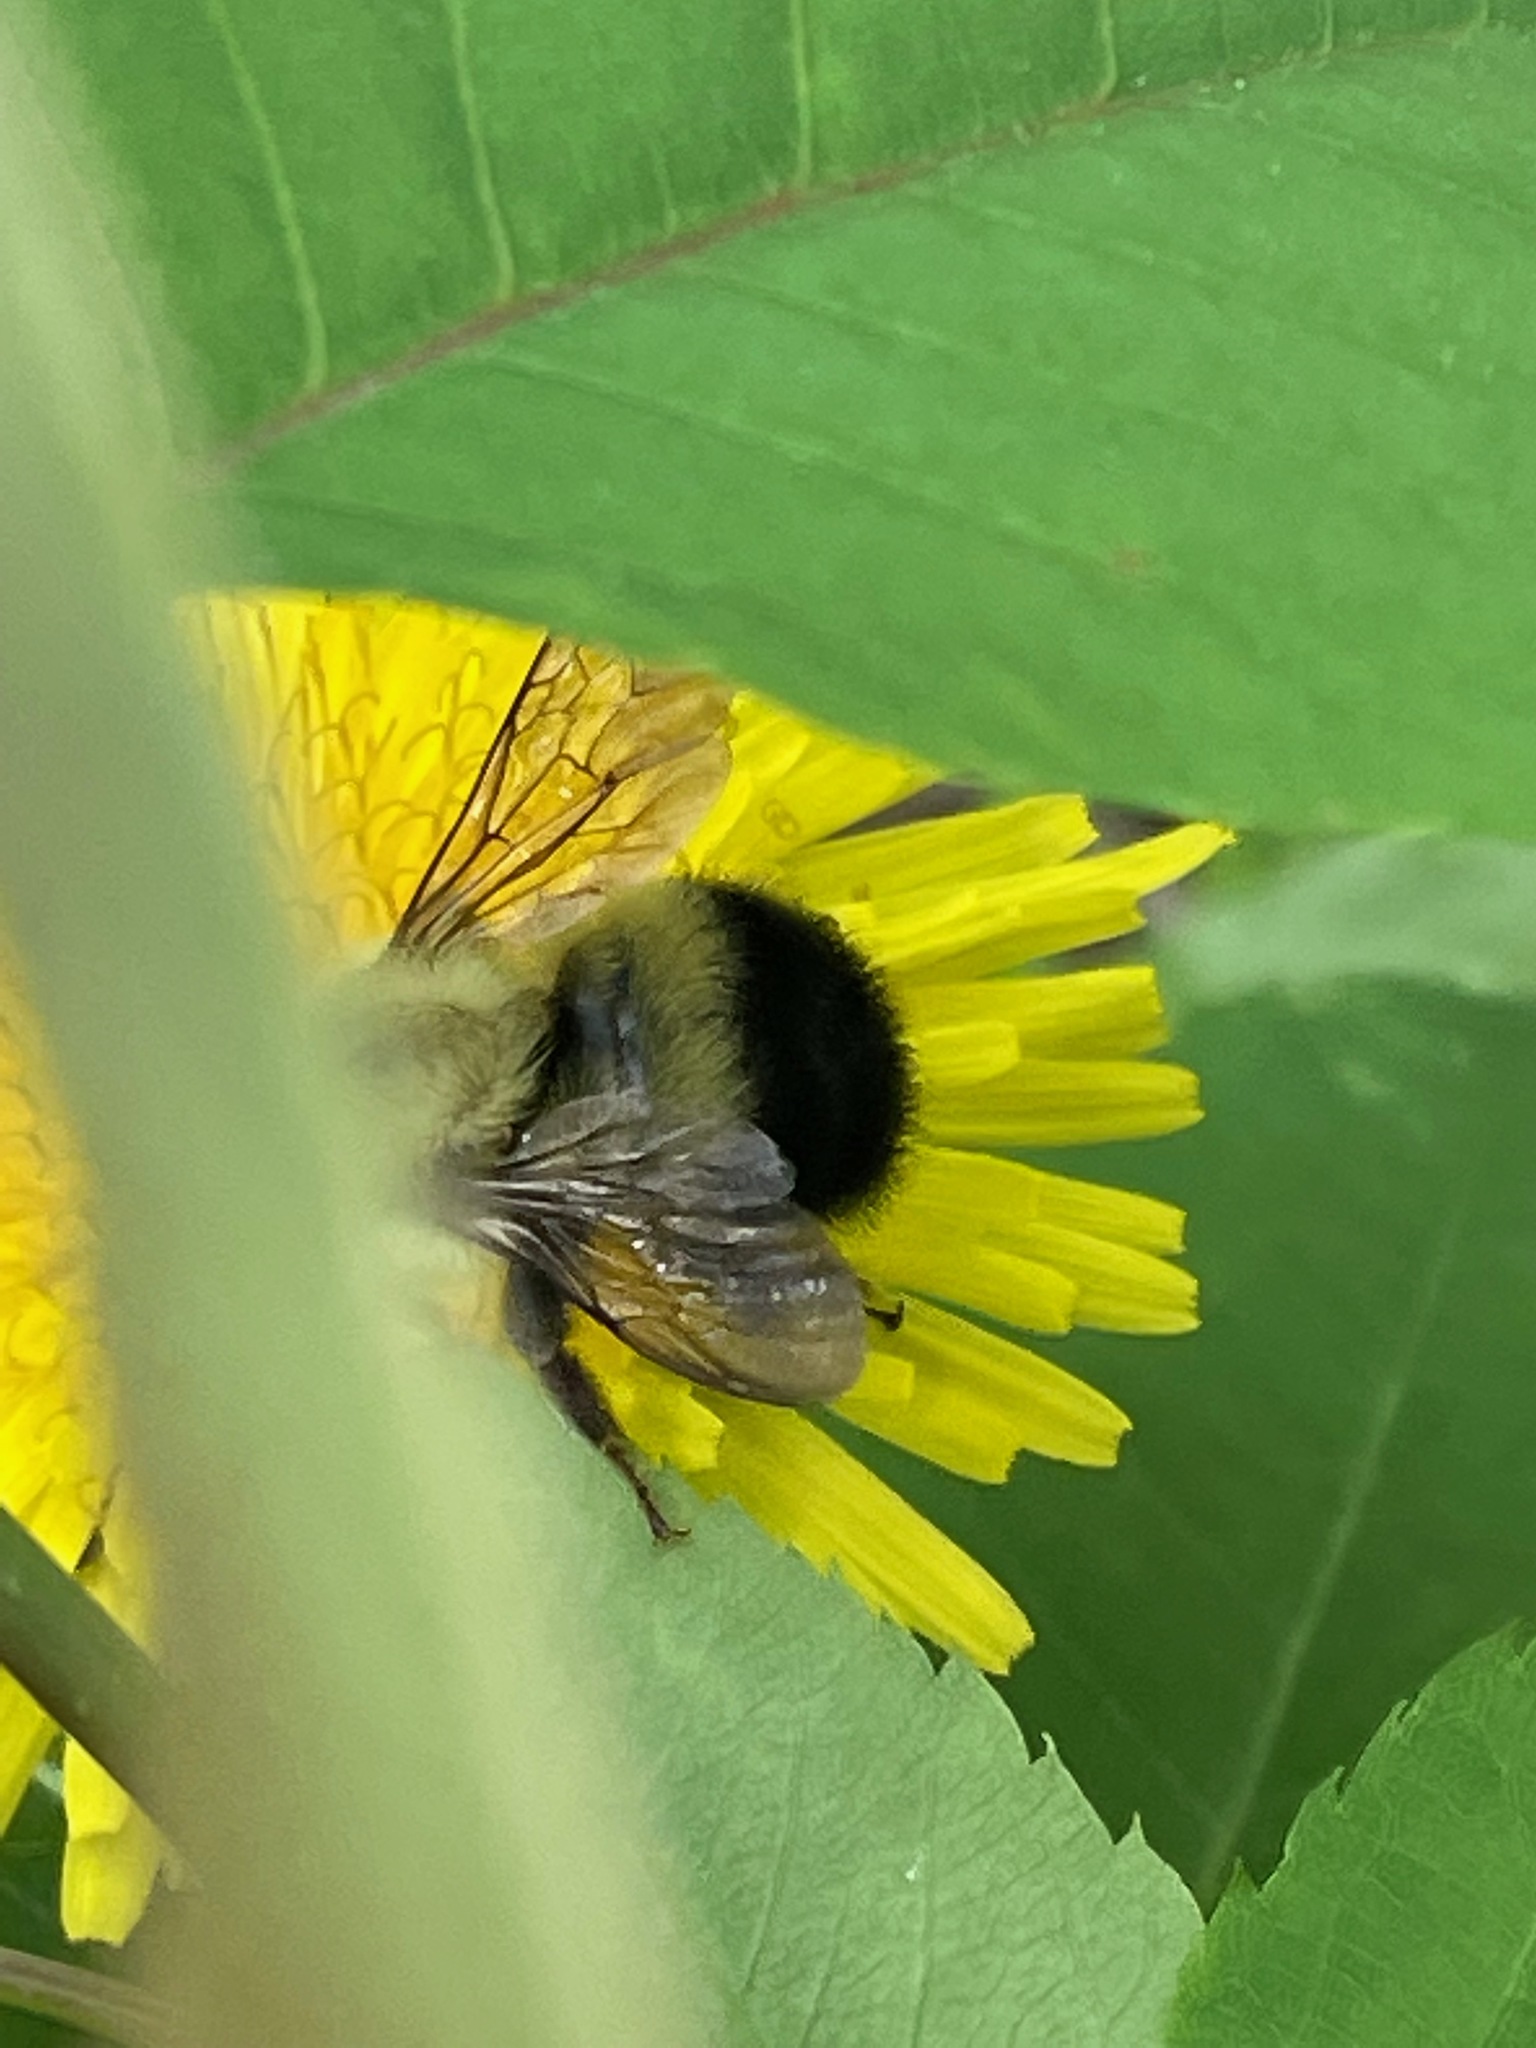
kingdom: Animalia
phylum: Arthropoda
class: Insecta
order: Hymenoptera
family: Apidae
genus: Pyrobombus
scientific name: Pyrobombus
